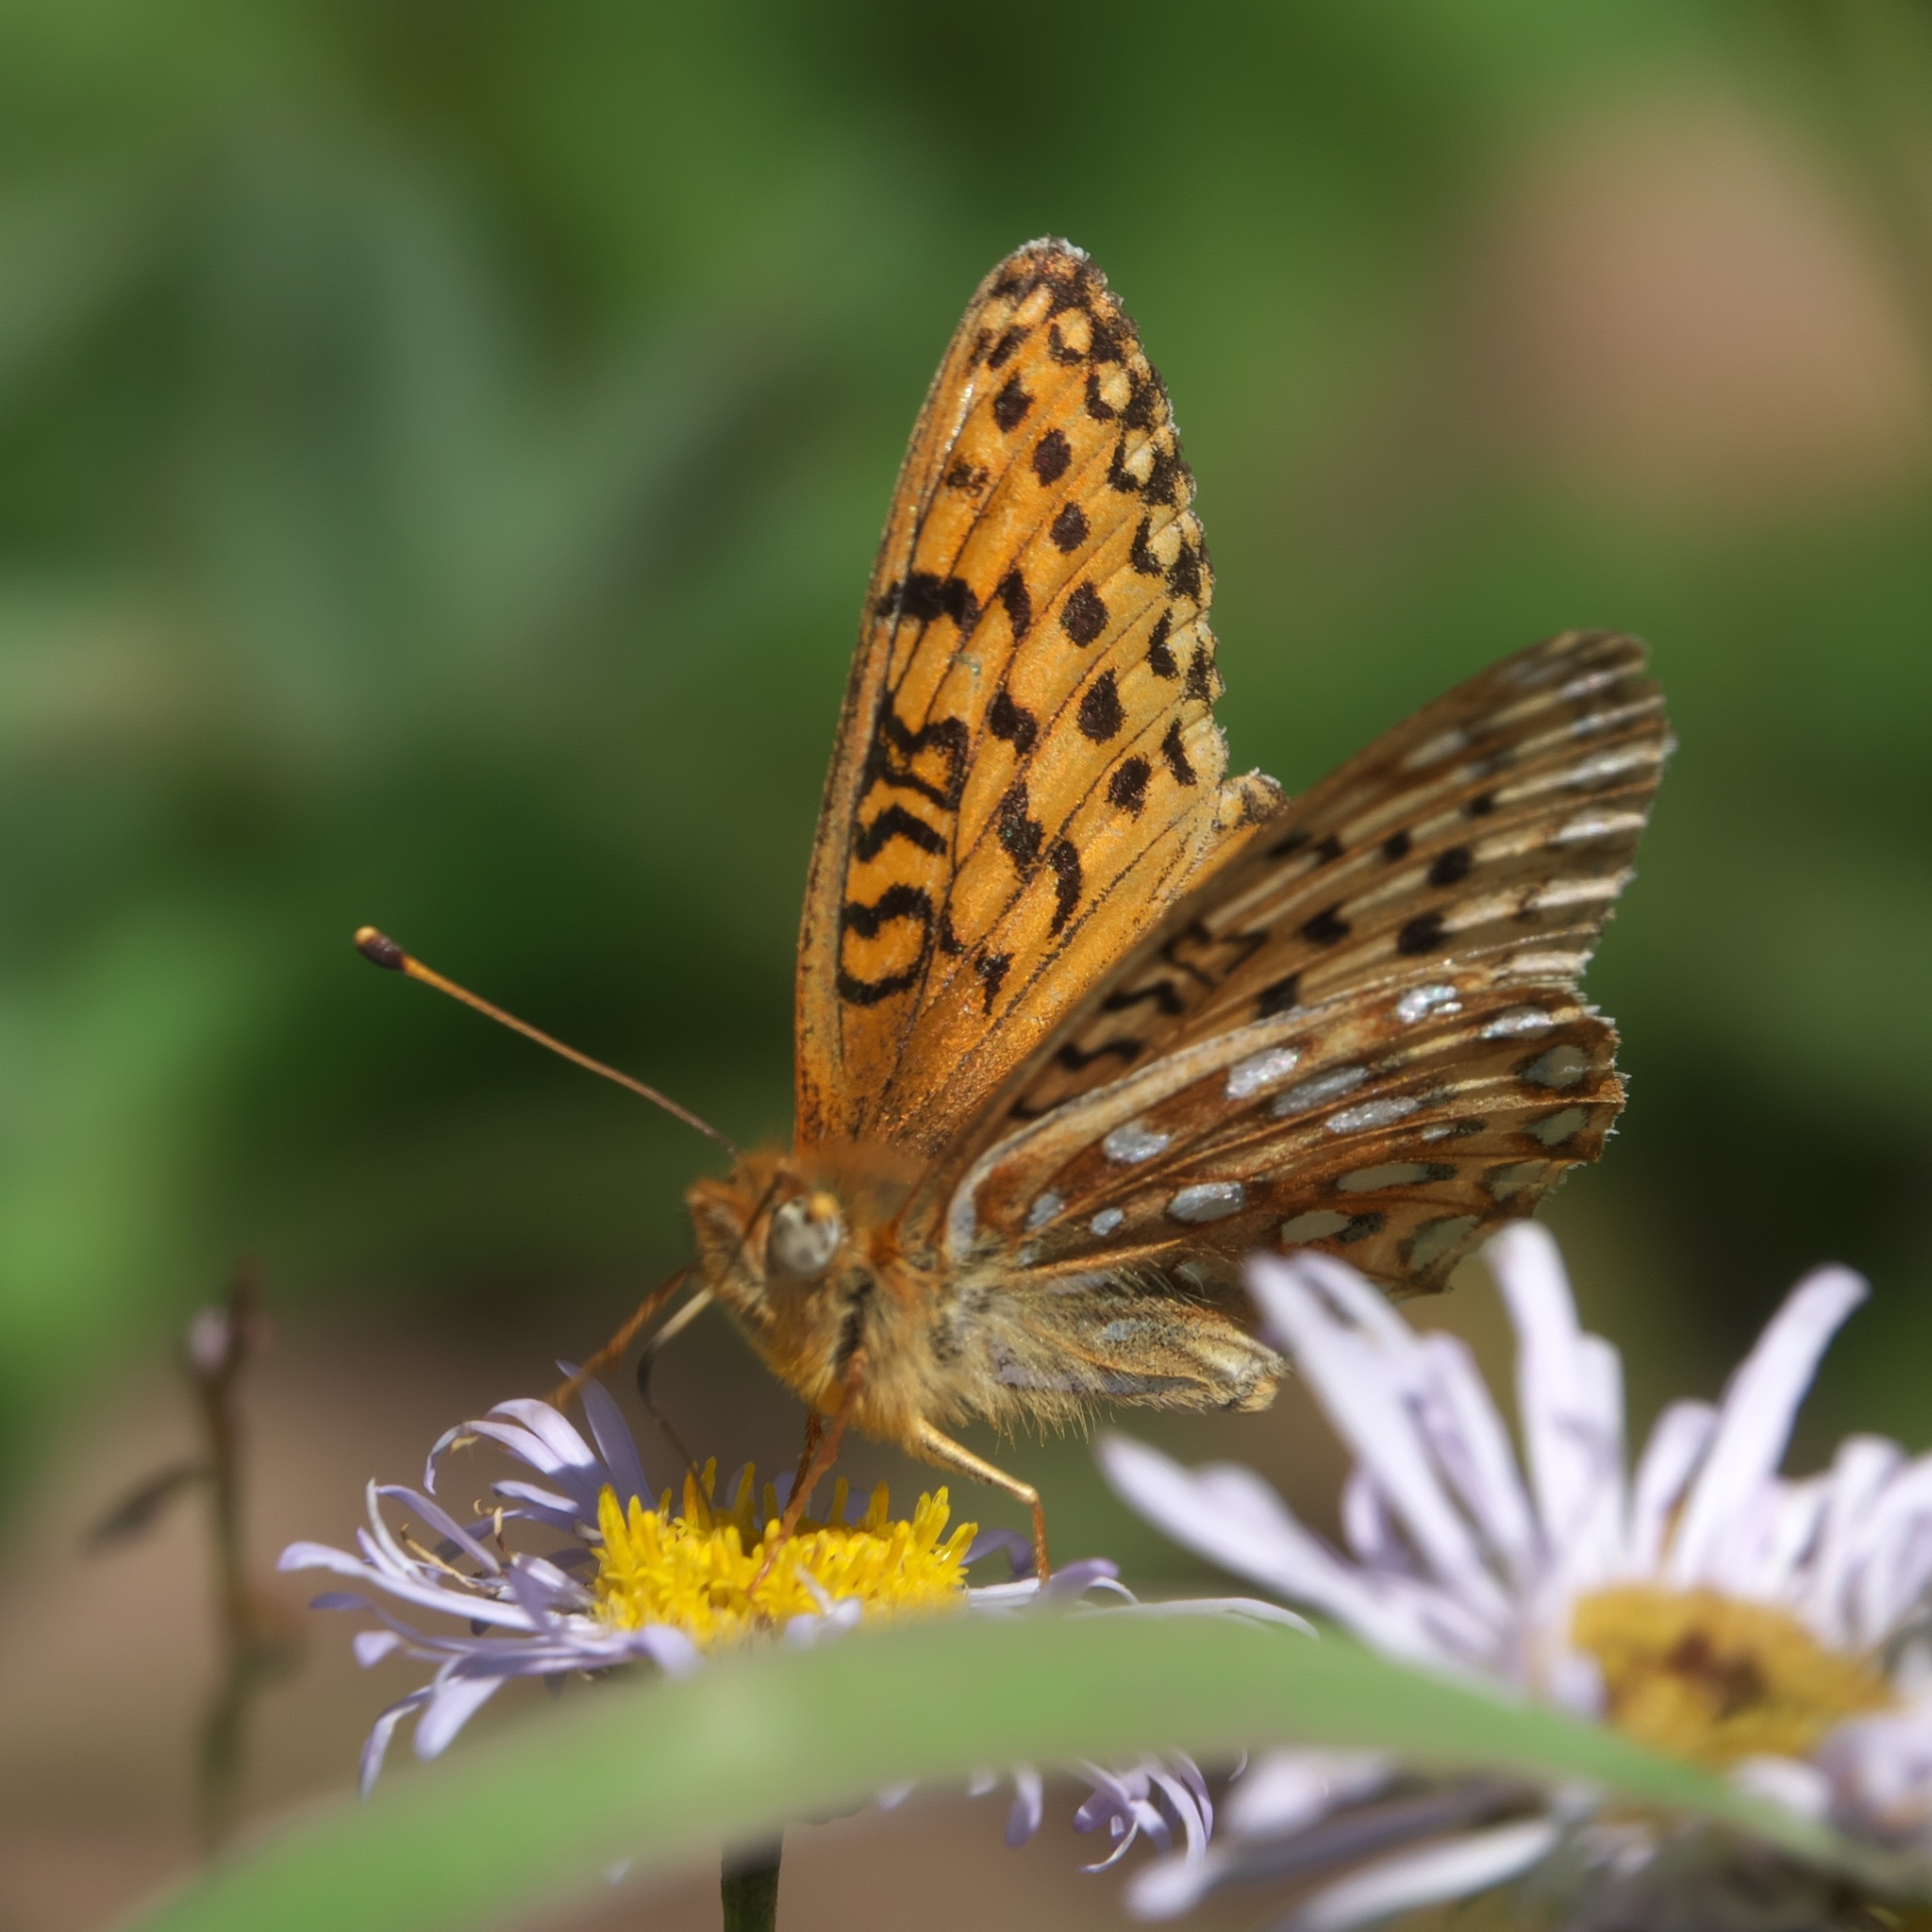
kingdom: Animalia
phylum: Arthropoda
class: Insecta
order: Lepidoptera
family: Nymphalidae
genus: Speyeria
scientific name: Speyeria mormonia
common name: Mormon fritillary
